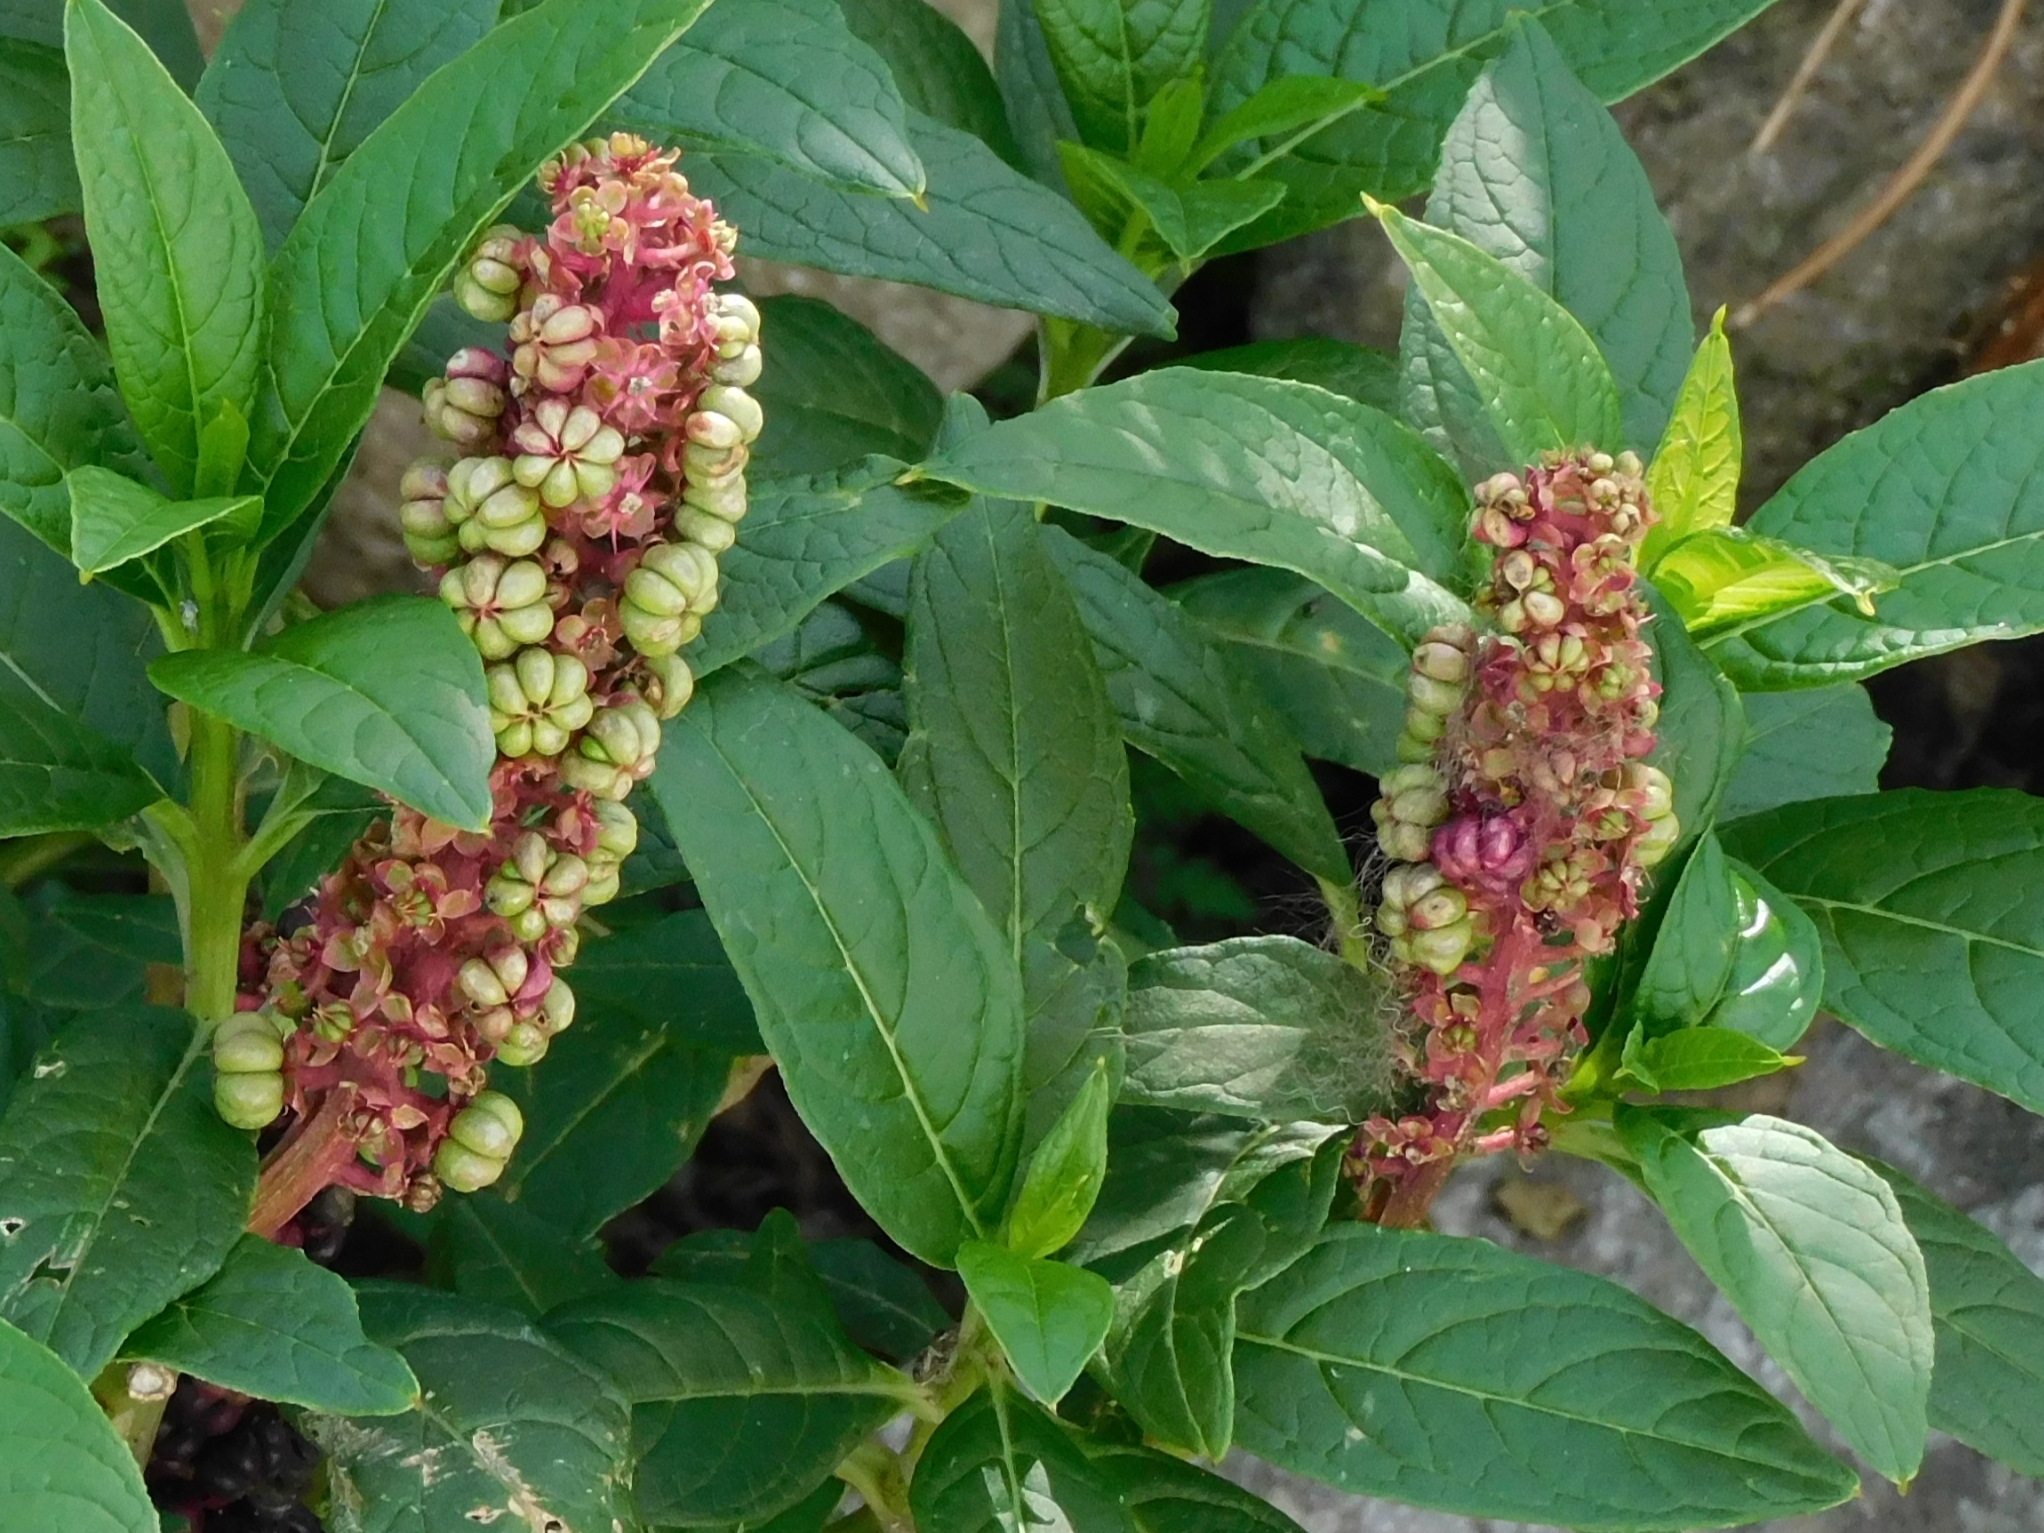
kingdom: Plantae
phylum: Tracheophyta
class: Magnoliopsida
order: Caryophyllales
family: Phytolaccaceae
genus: Phytolacca
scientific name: Phytolacca acinosa
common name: Indian pokeweed
